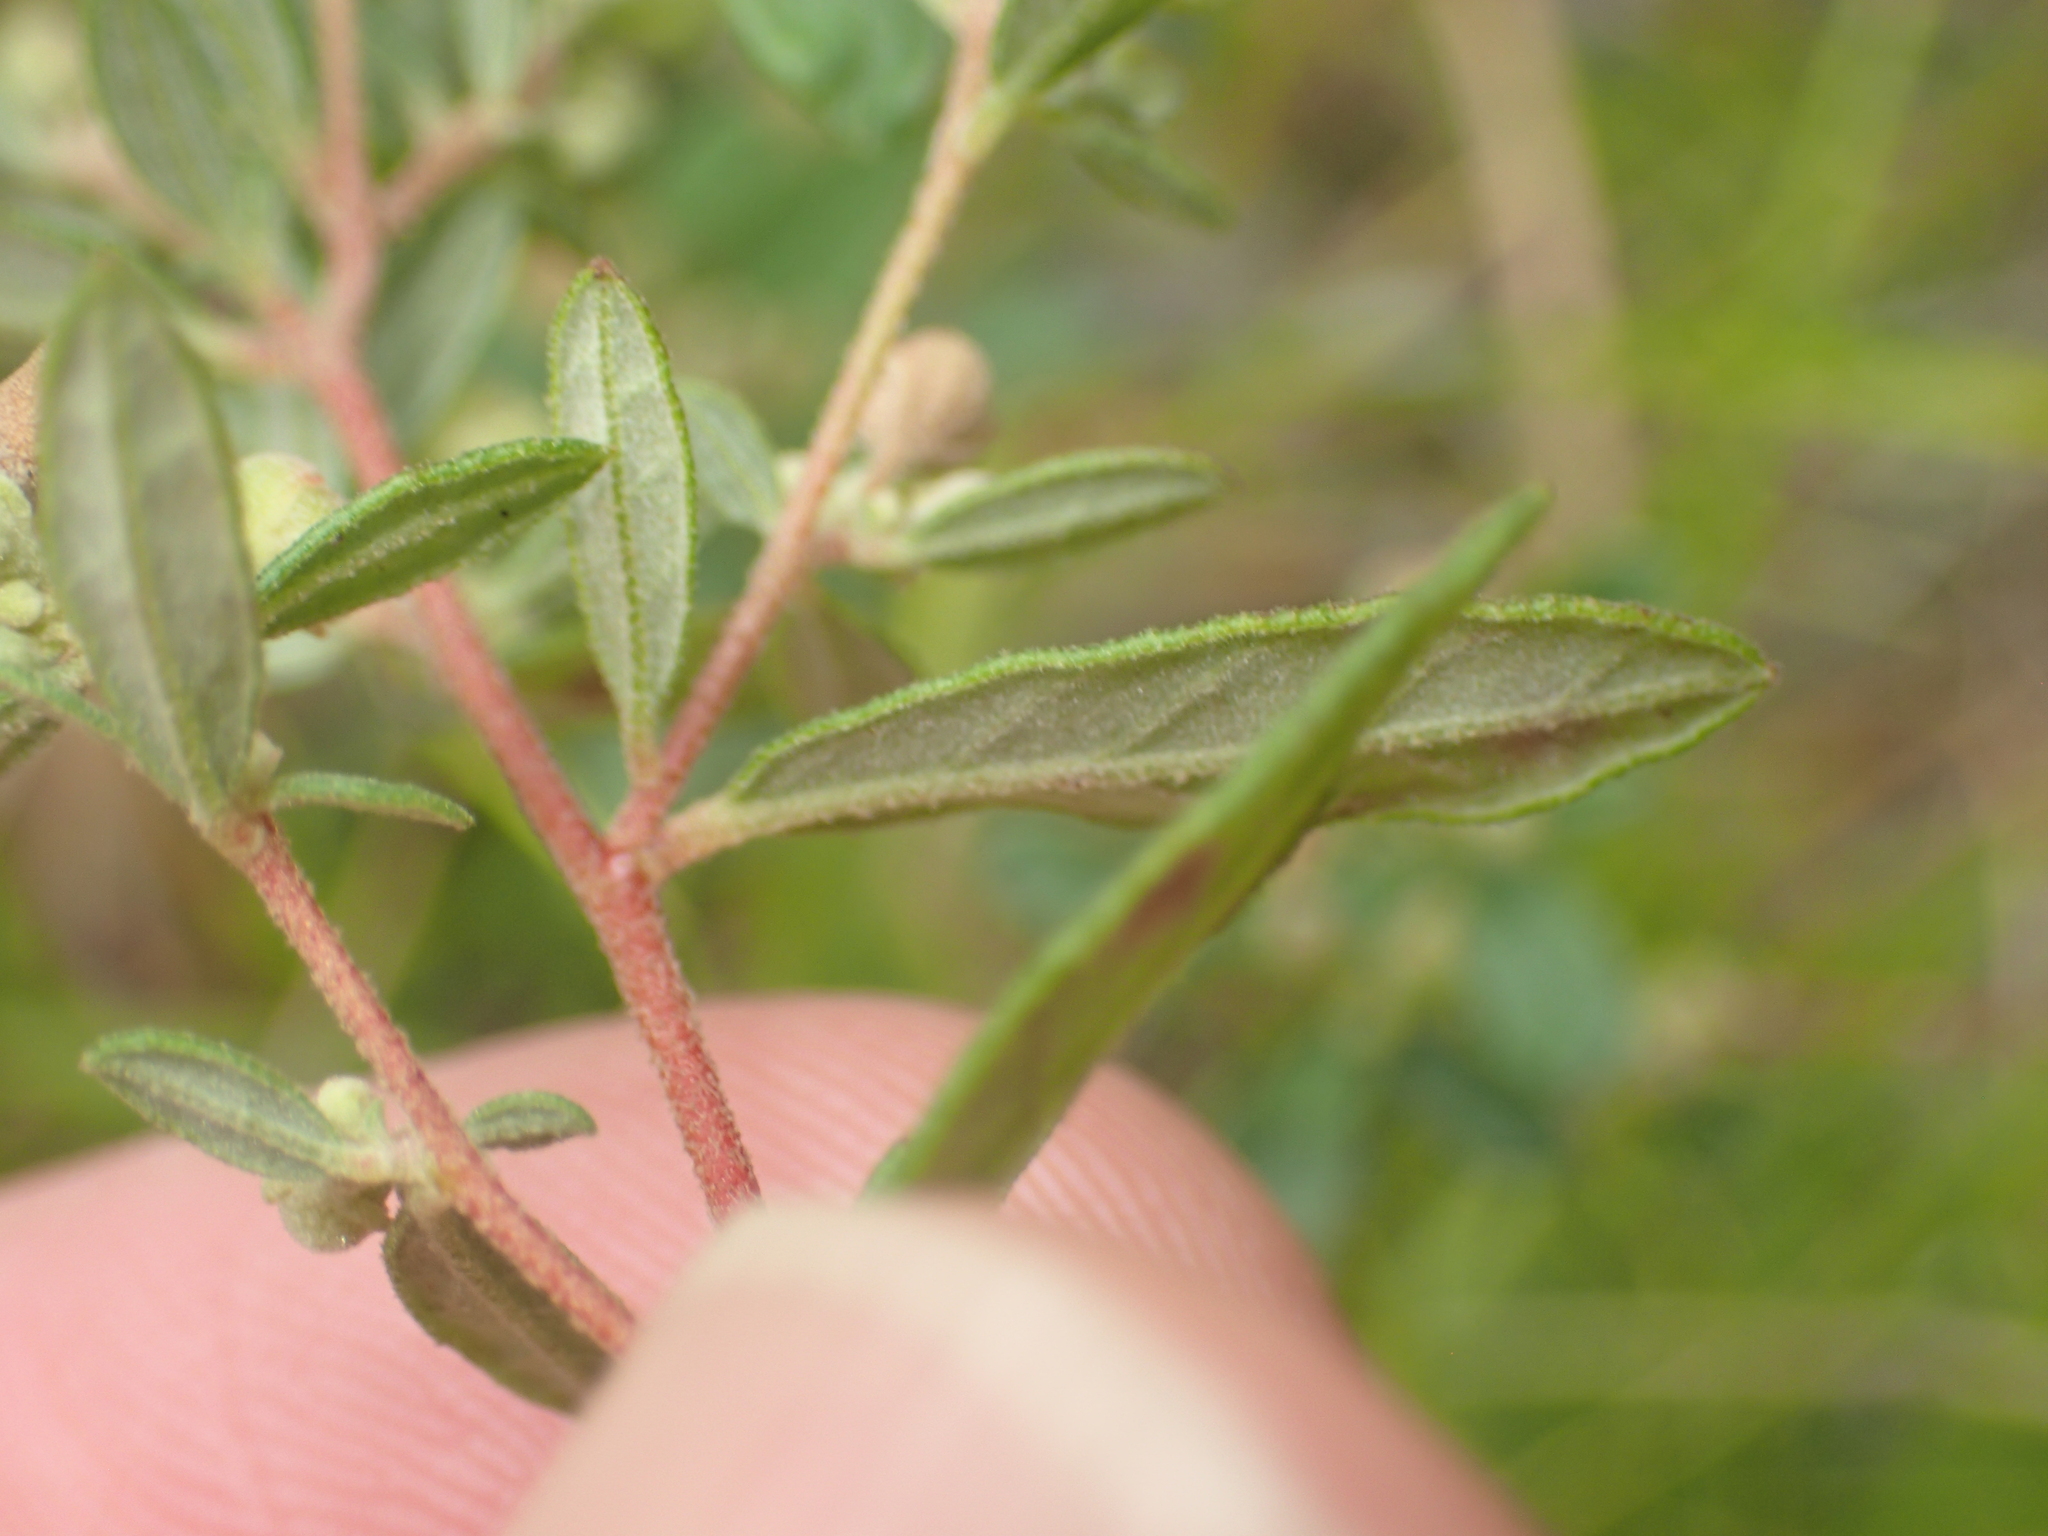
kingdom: Plantae
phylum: Tracheophyta
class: Magnoliopsida
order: Malvales
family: Cistaceae
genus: Crocanthemum
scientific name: Crocanthemum bicknellii
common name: Hoary frostweed
